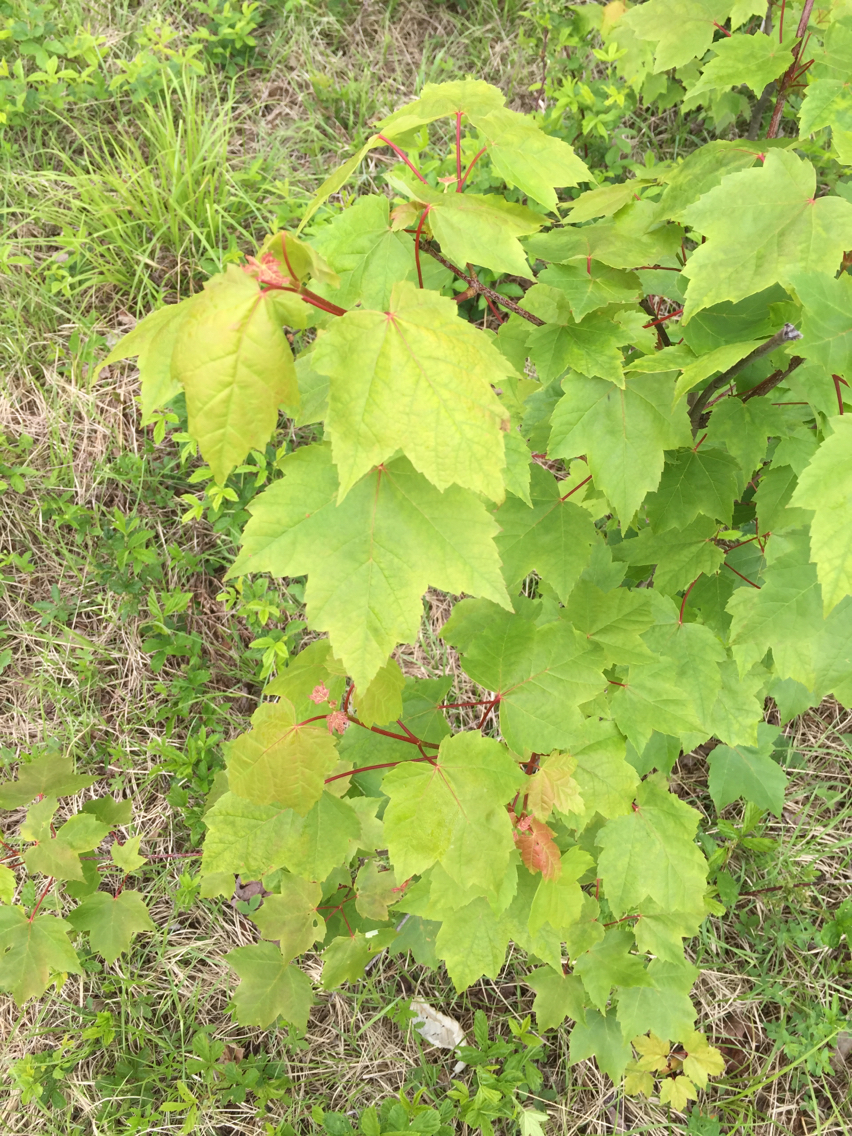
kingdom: Plantae
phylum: Tracheophyta
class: Magnoliopsida
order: Sapindales
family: Sapindaceae
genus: Acer
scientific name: Acer rubrum
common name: Red maple
